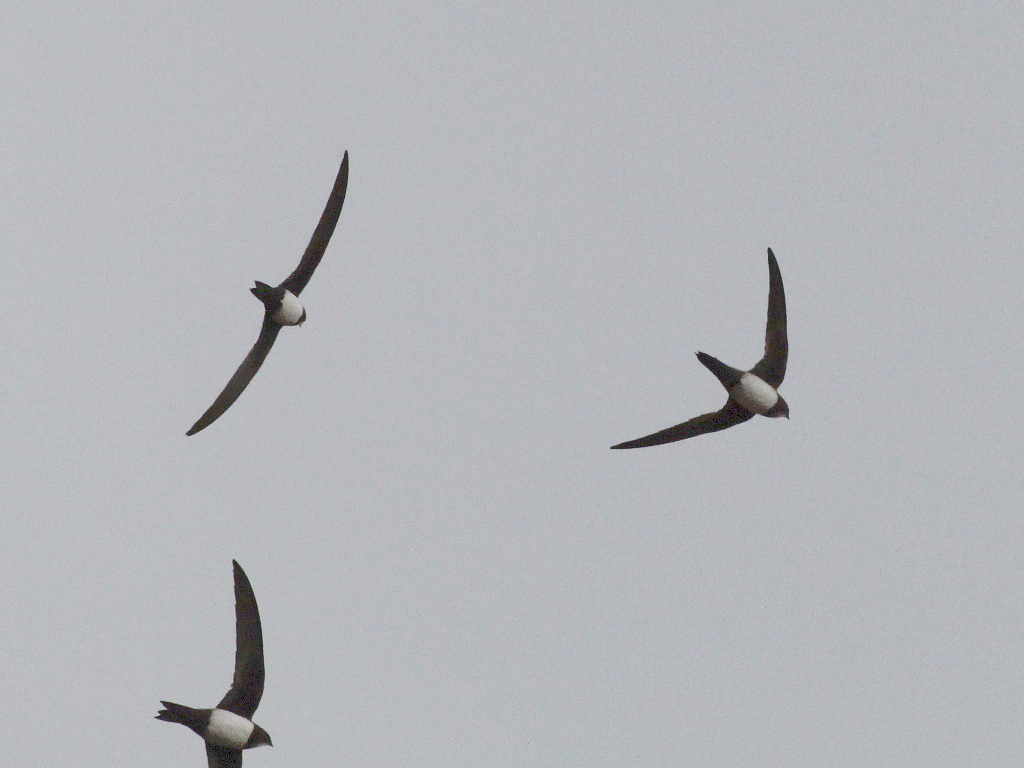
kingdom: Animalia
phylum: Chordata
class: Aves
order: Apodiformes
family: Apodidae
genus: Tachymarptis
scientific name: Tachymarptis melba
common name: Alpine swift
